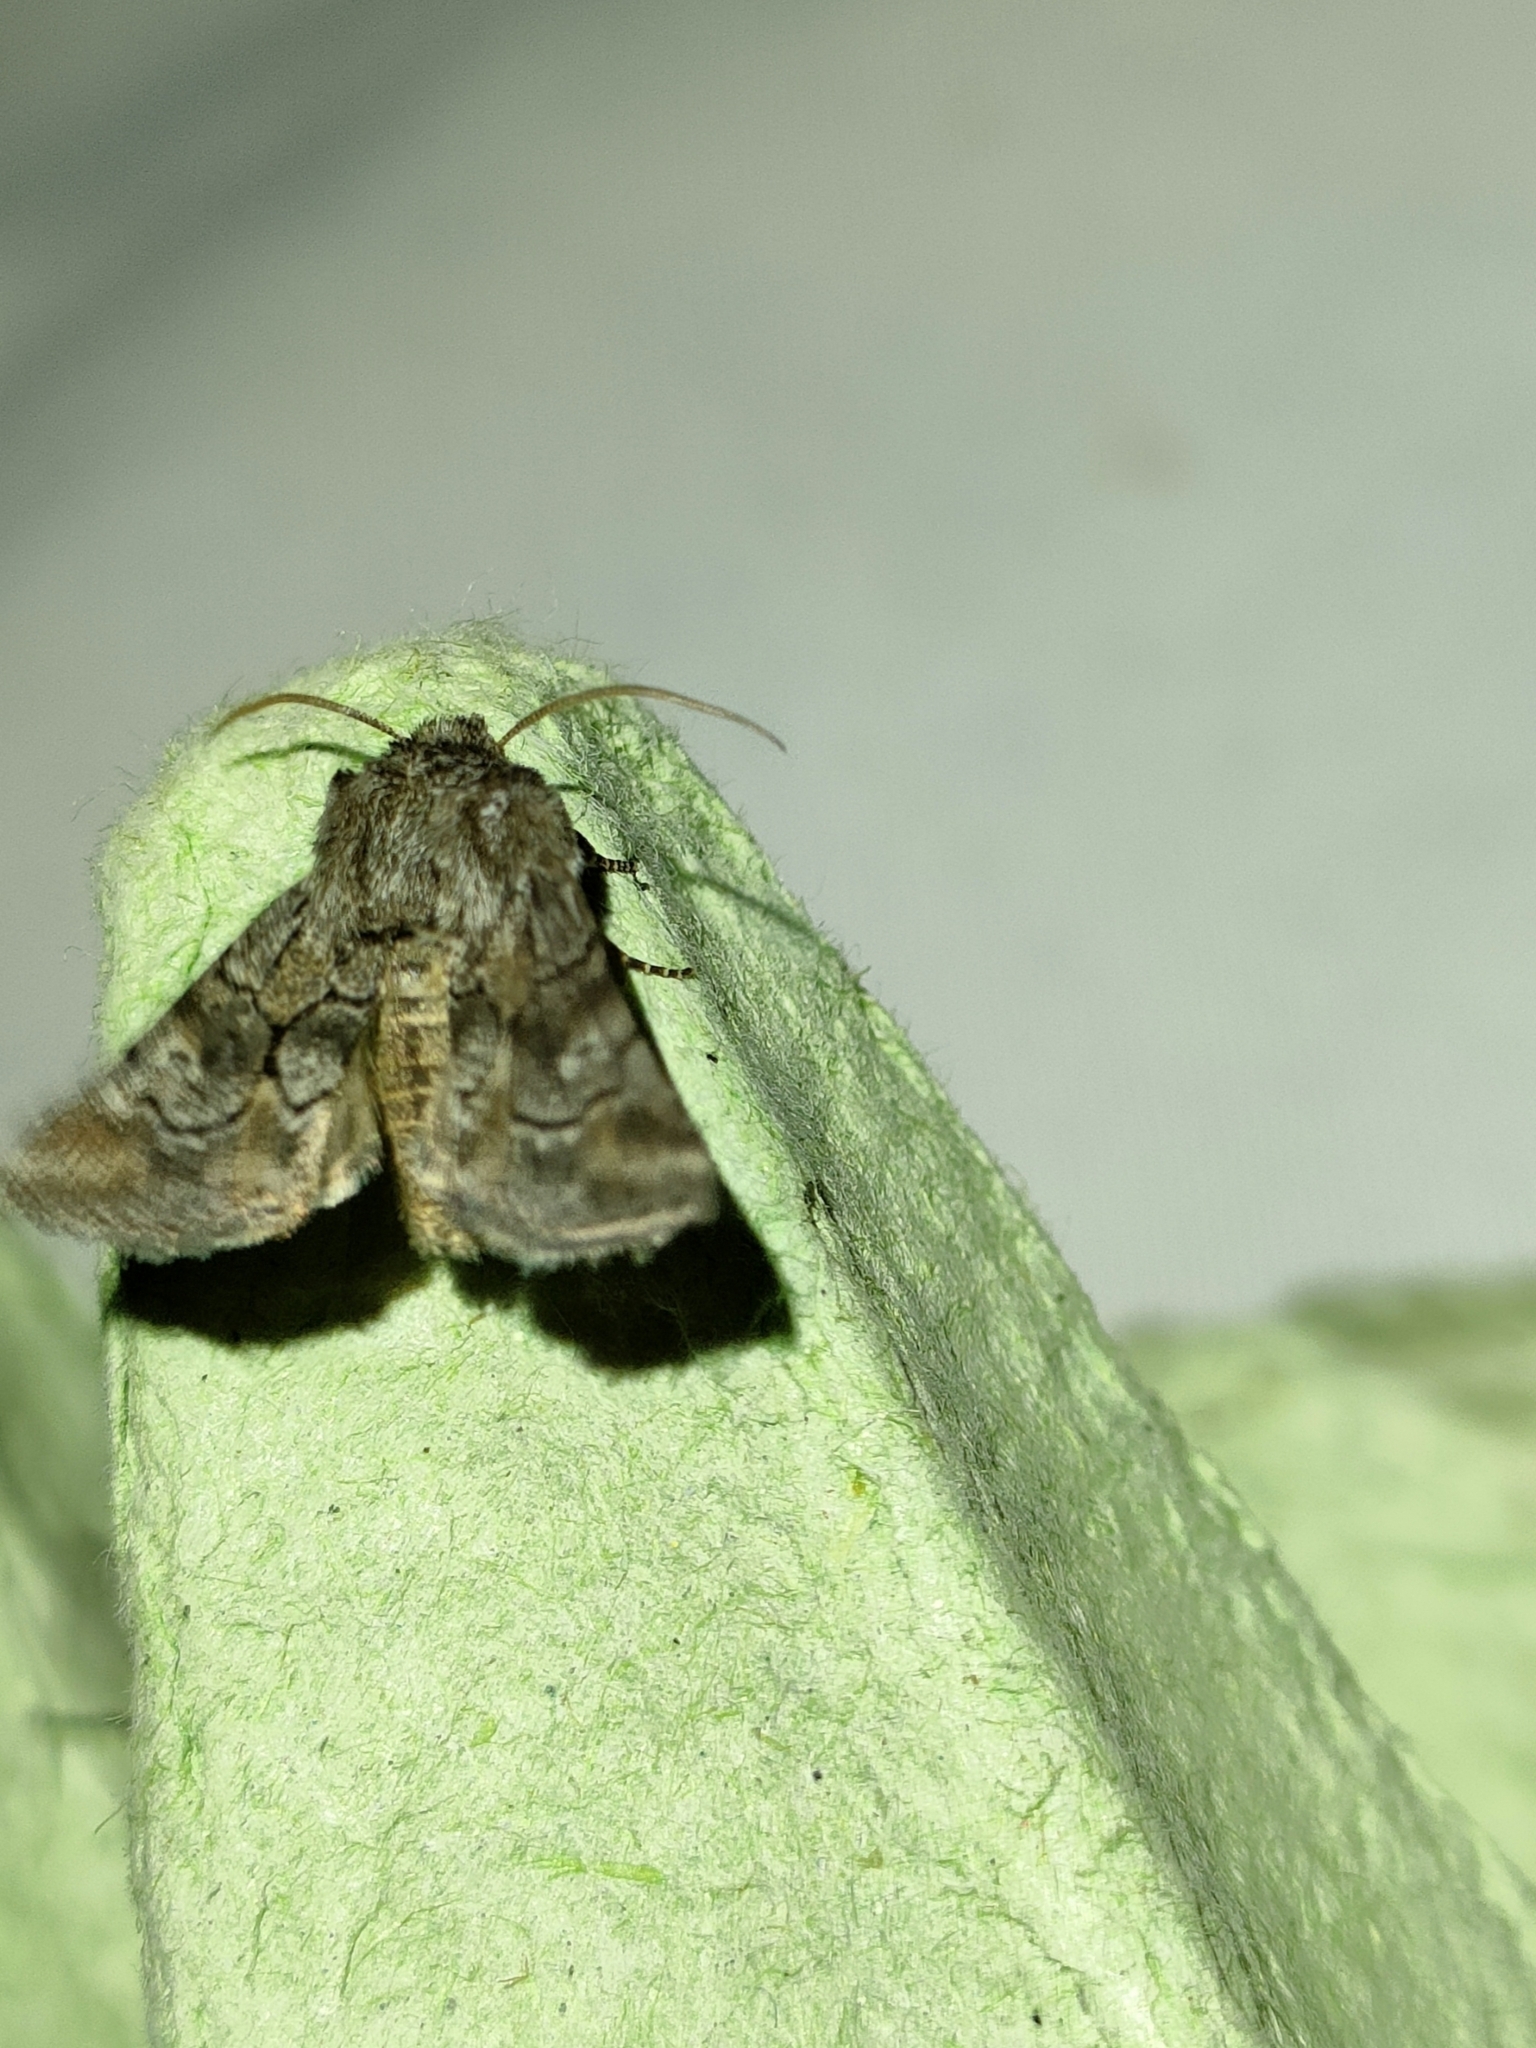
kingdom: Animalia
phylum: Arthropoda
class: Insecta
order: Lepidoptera
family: Noctuidae
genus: Cleonymia
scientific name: Cleonymia yvanii
